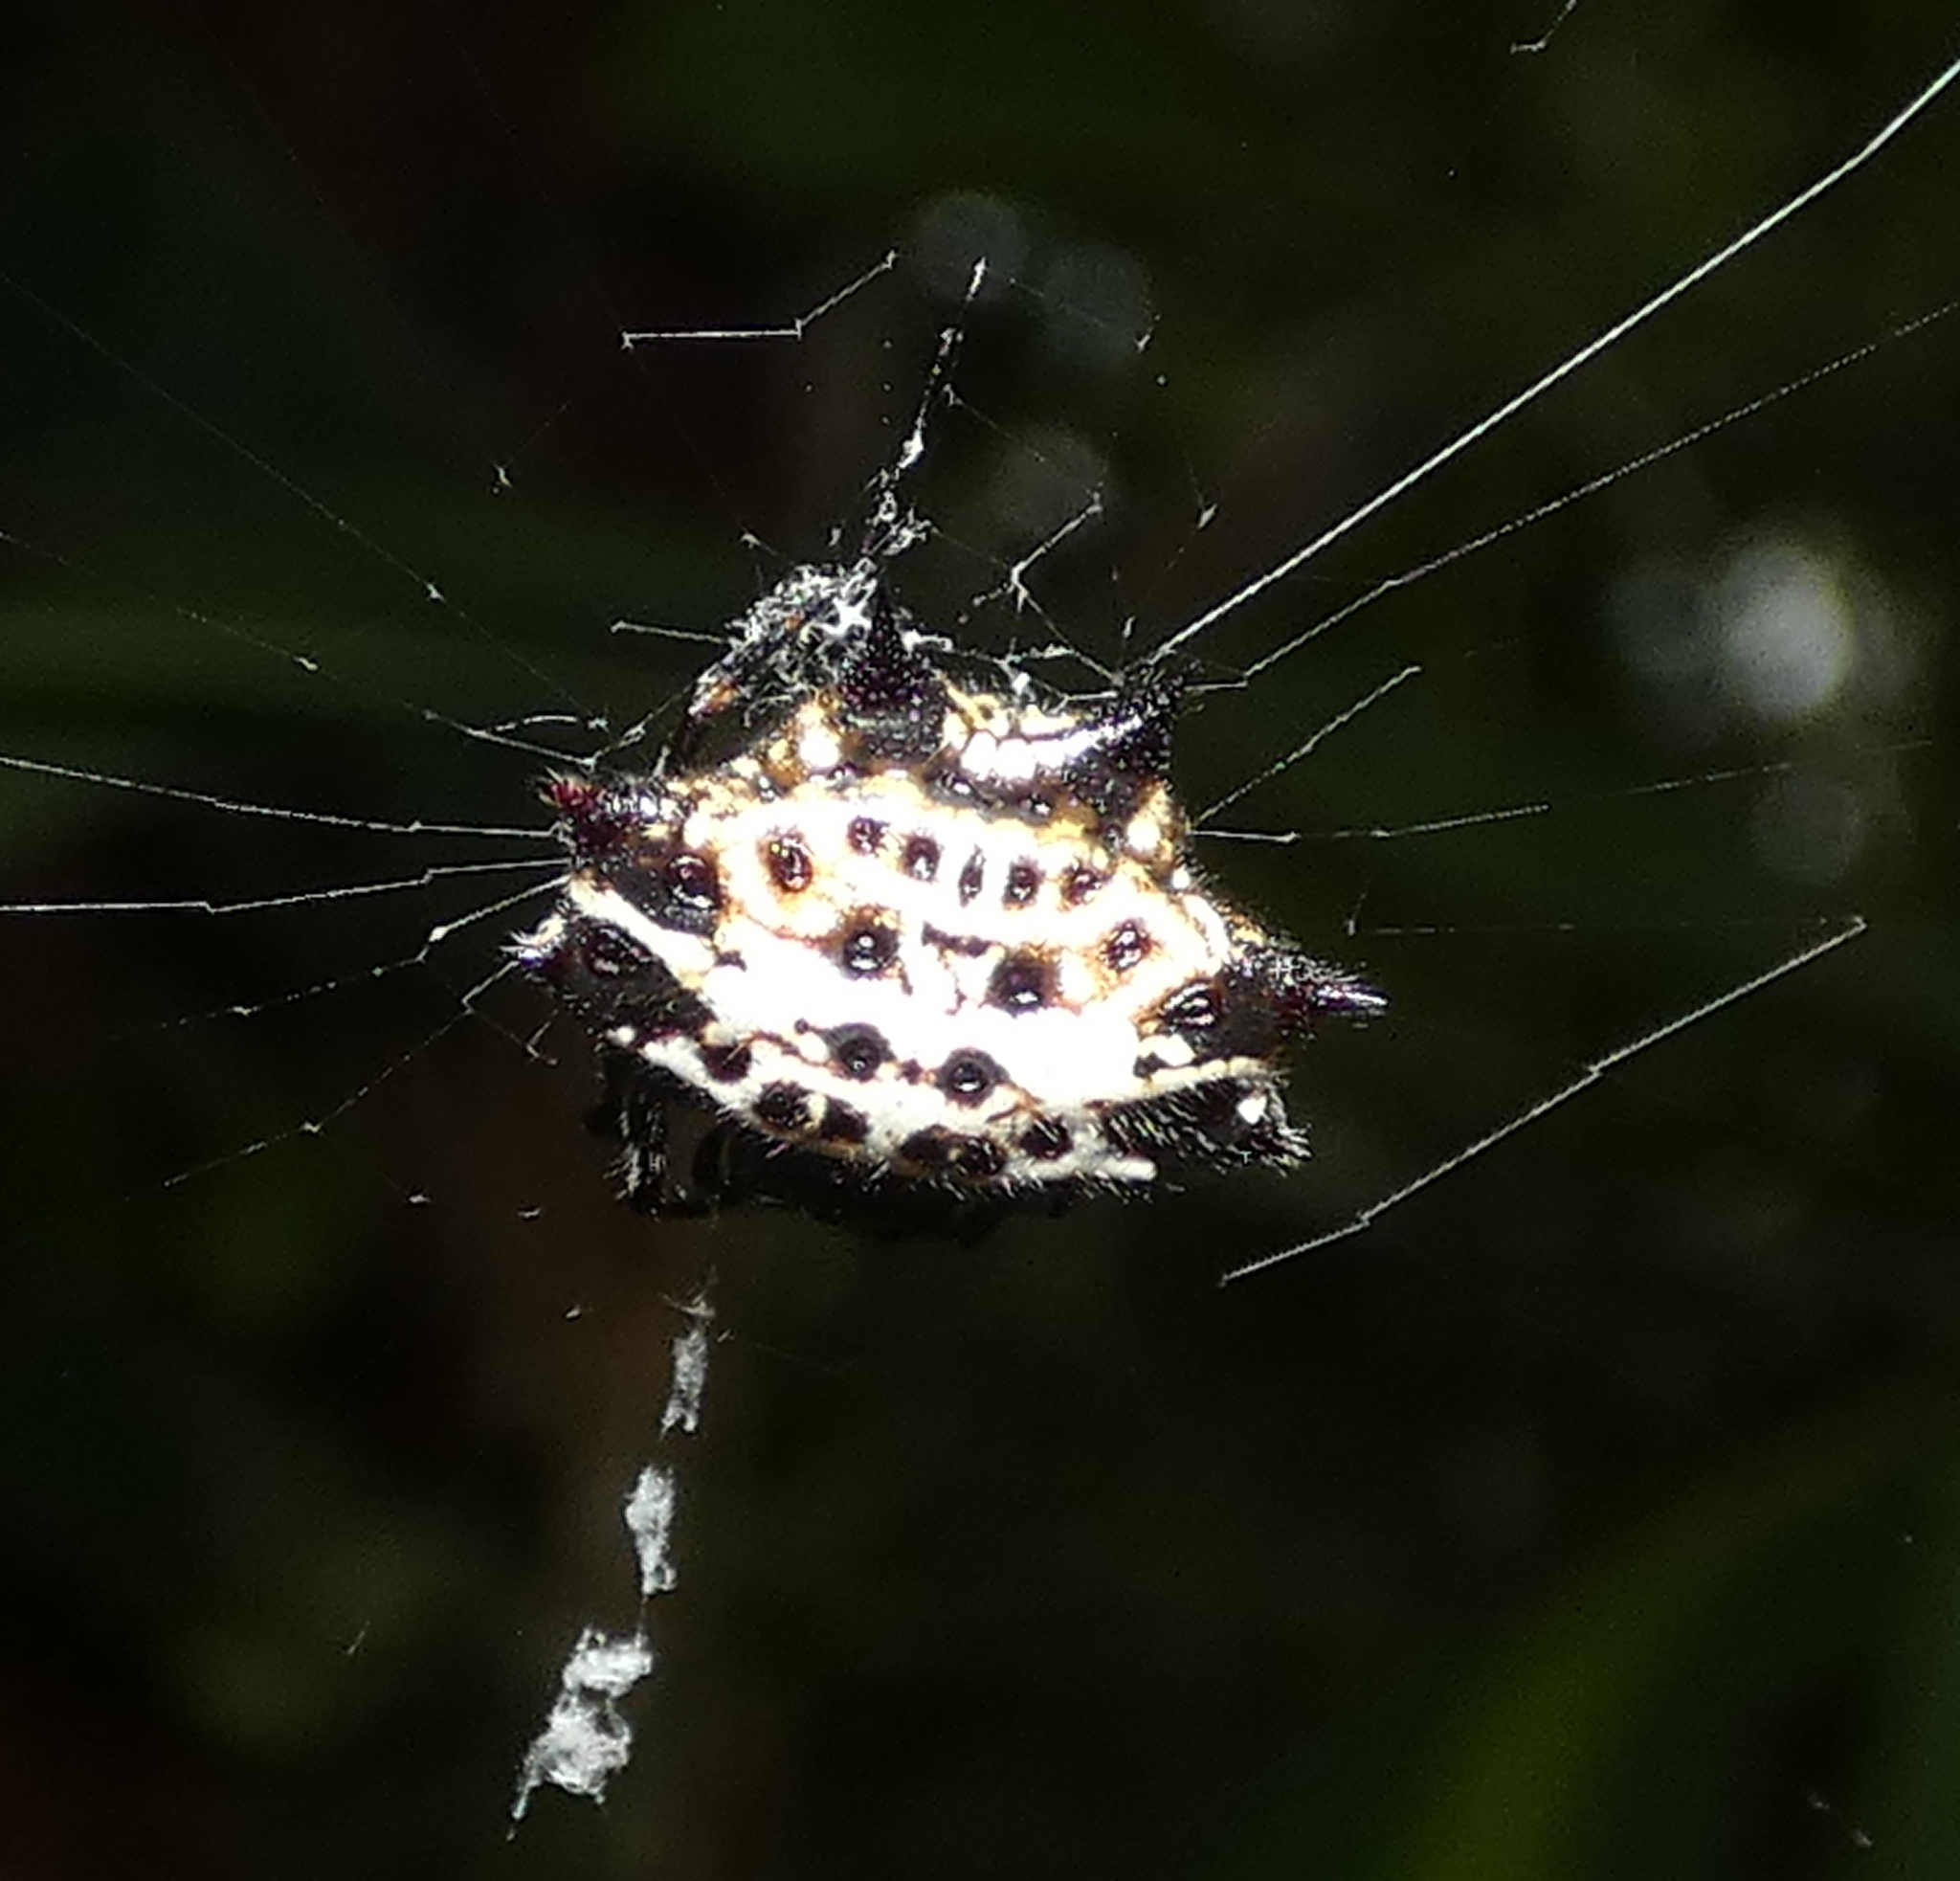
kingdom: Animalia
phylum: Arthropoda
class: Arachnida
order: Araneae
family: Araneidae
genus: Gasteracantha
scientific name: Gasteracantha cancriformis
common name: Orb weavers
